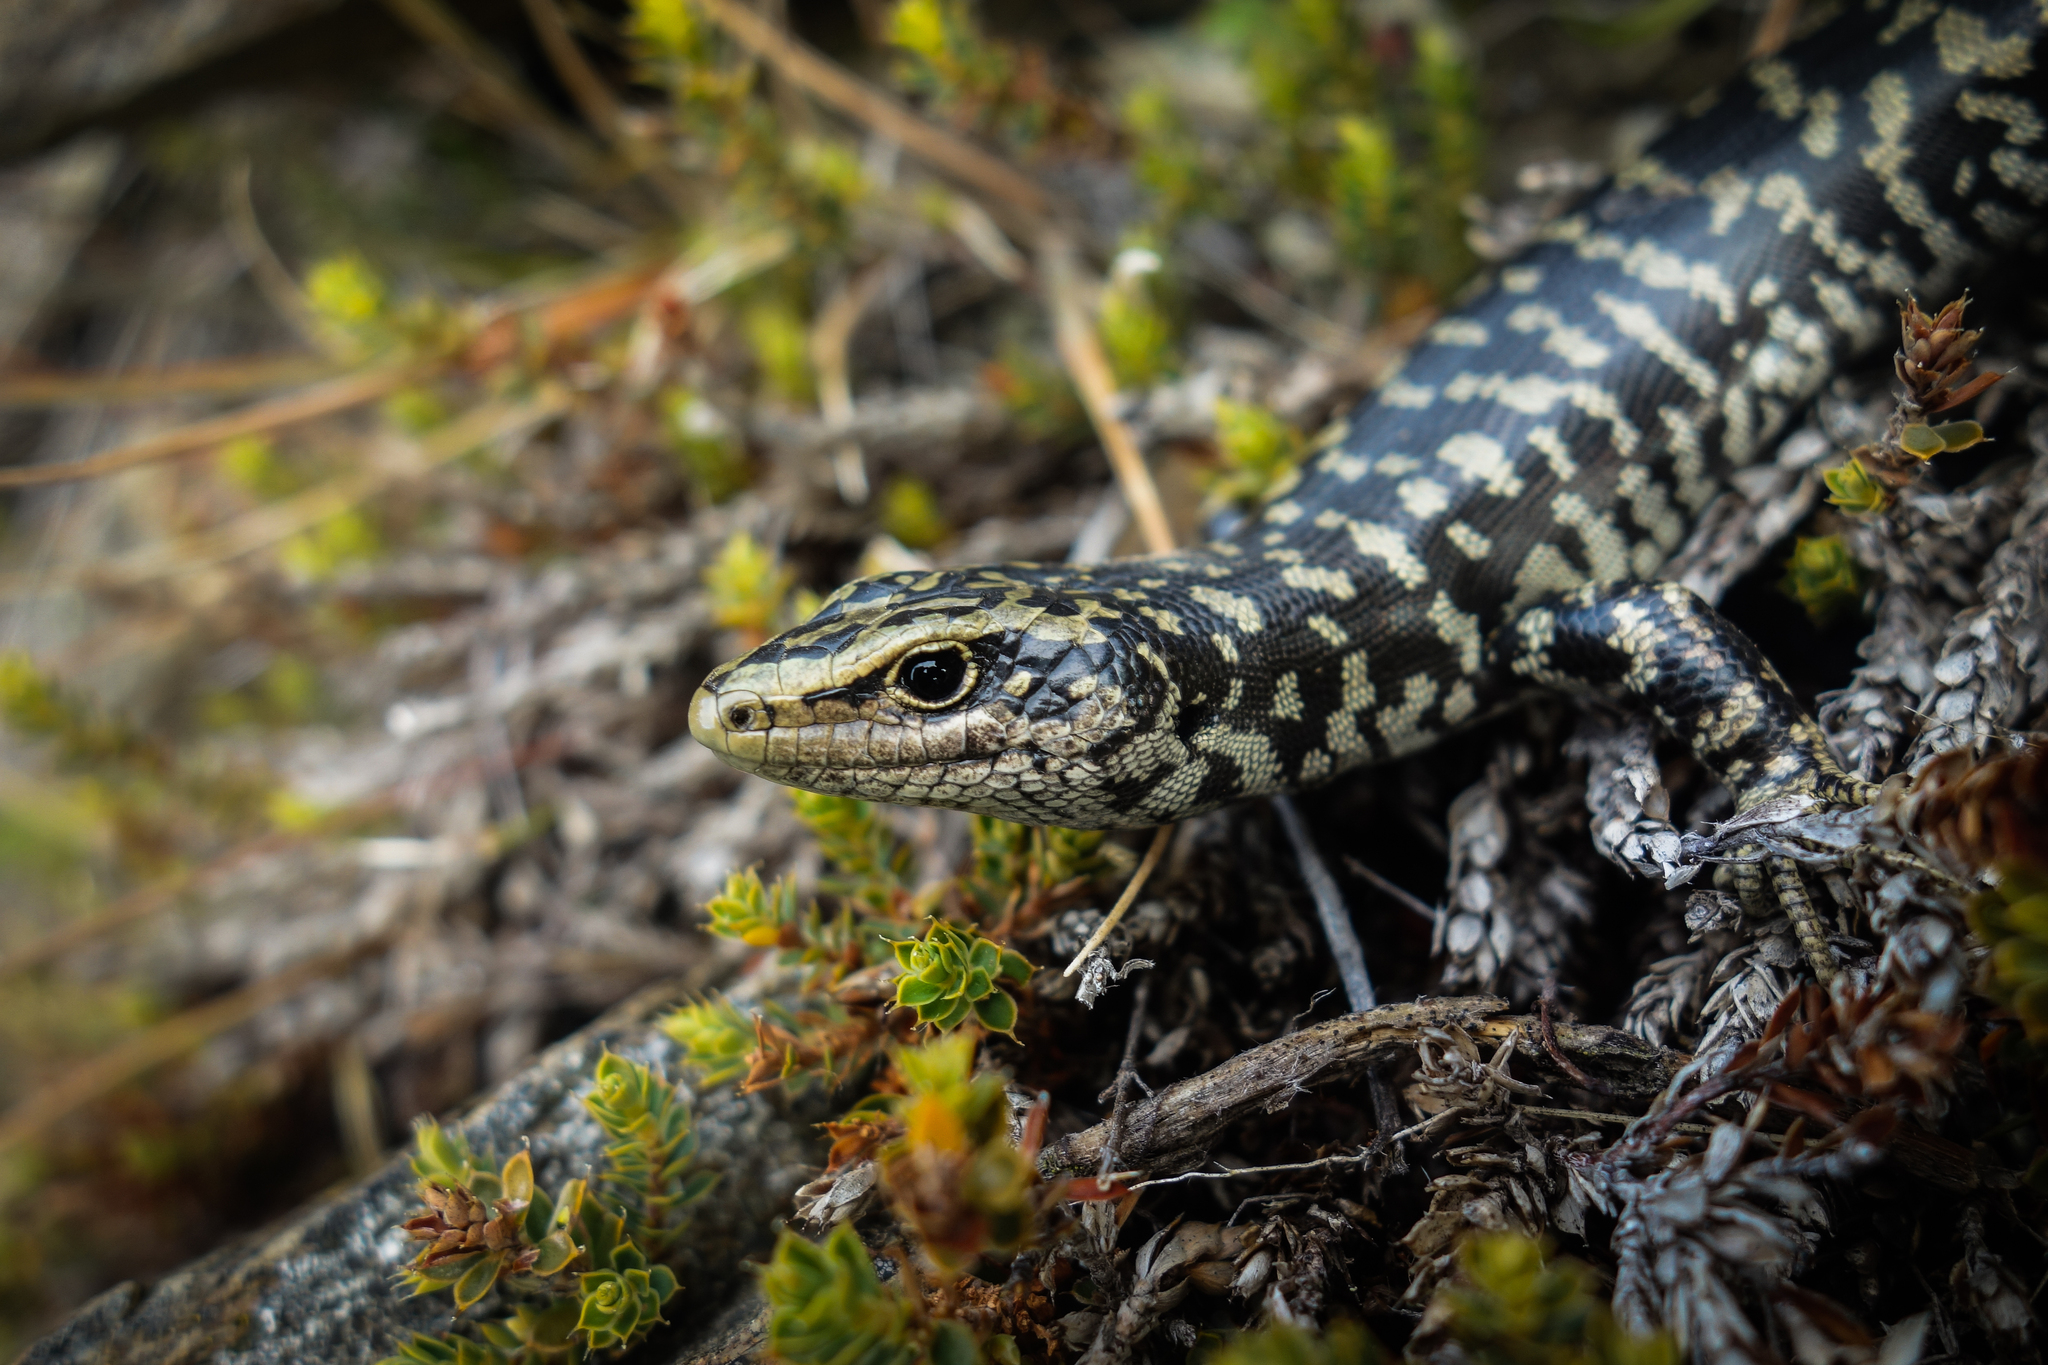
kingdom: Animalia
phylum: Chordata
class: Squamata
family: Scincidae
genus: Oligosoma
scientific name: Oligosoma otagense
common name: Otago skink
